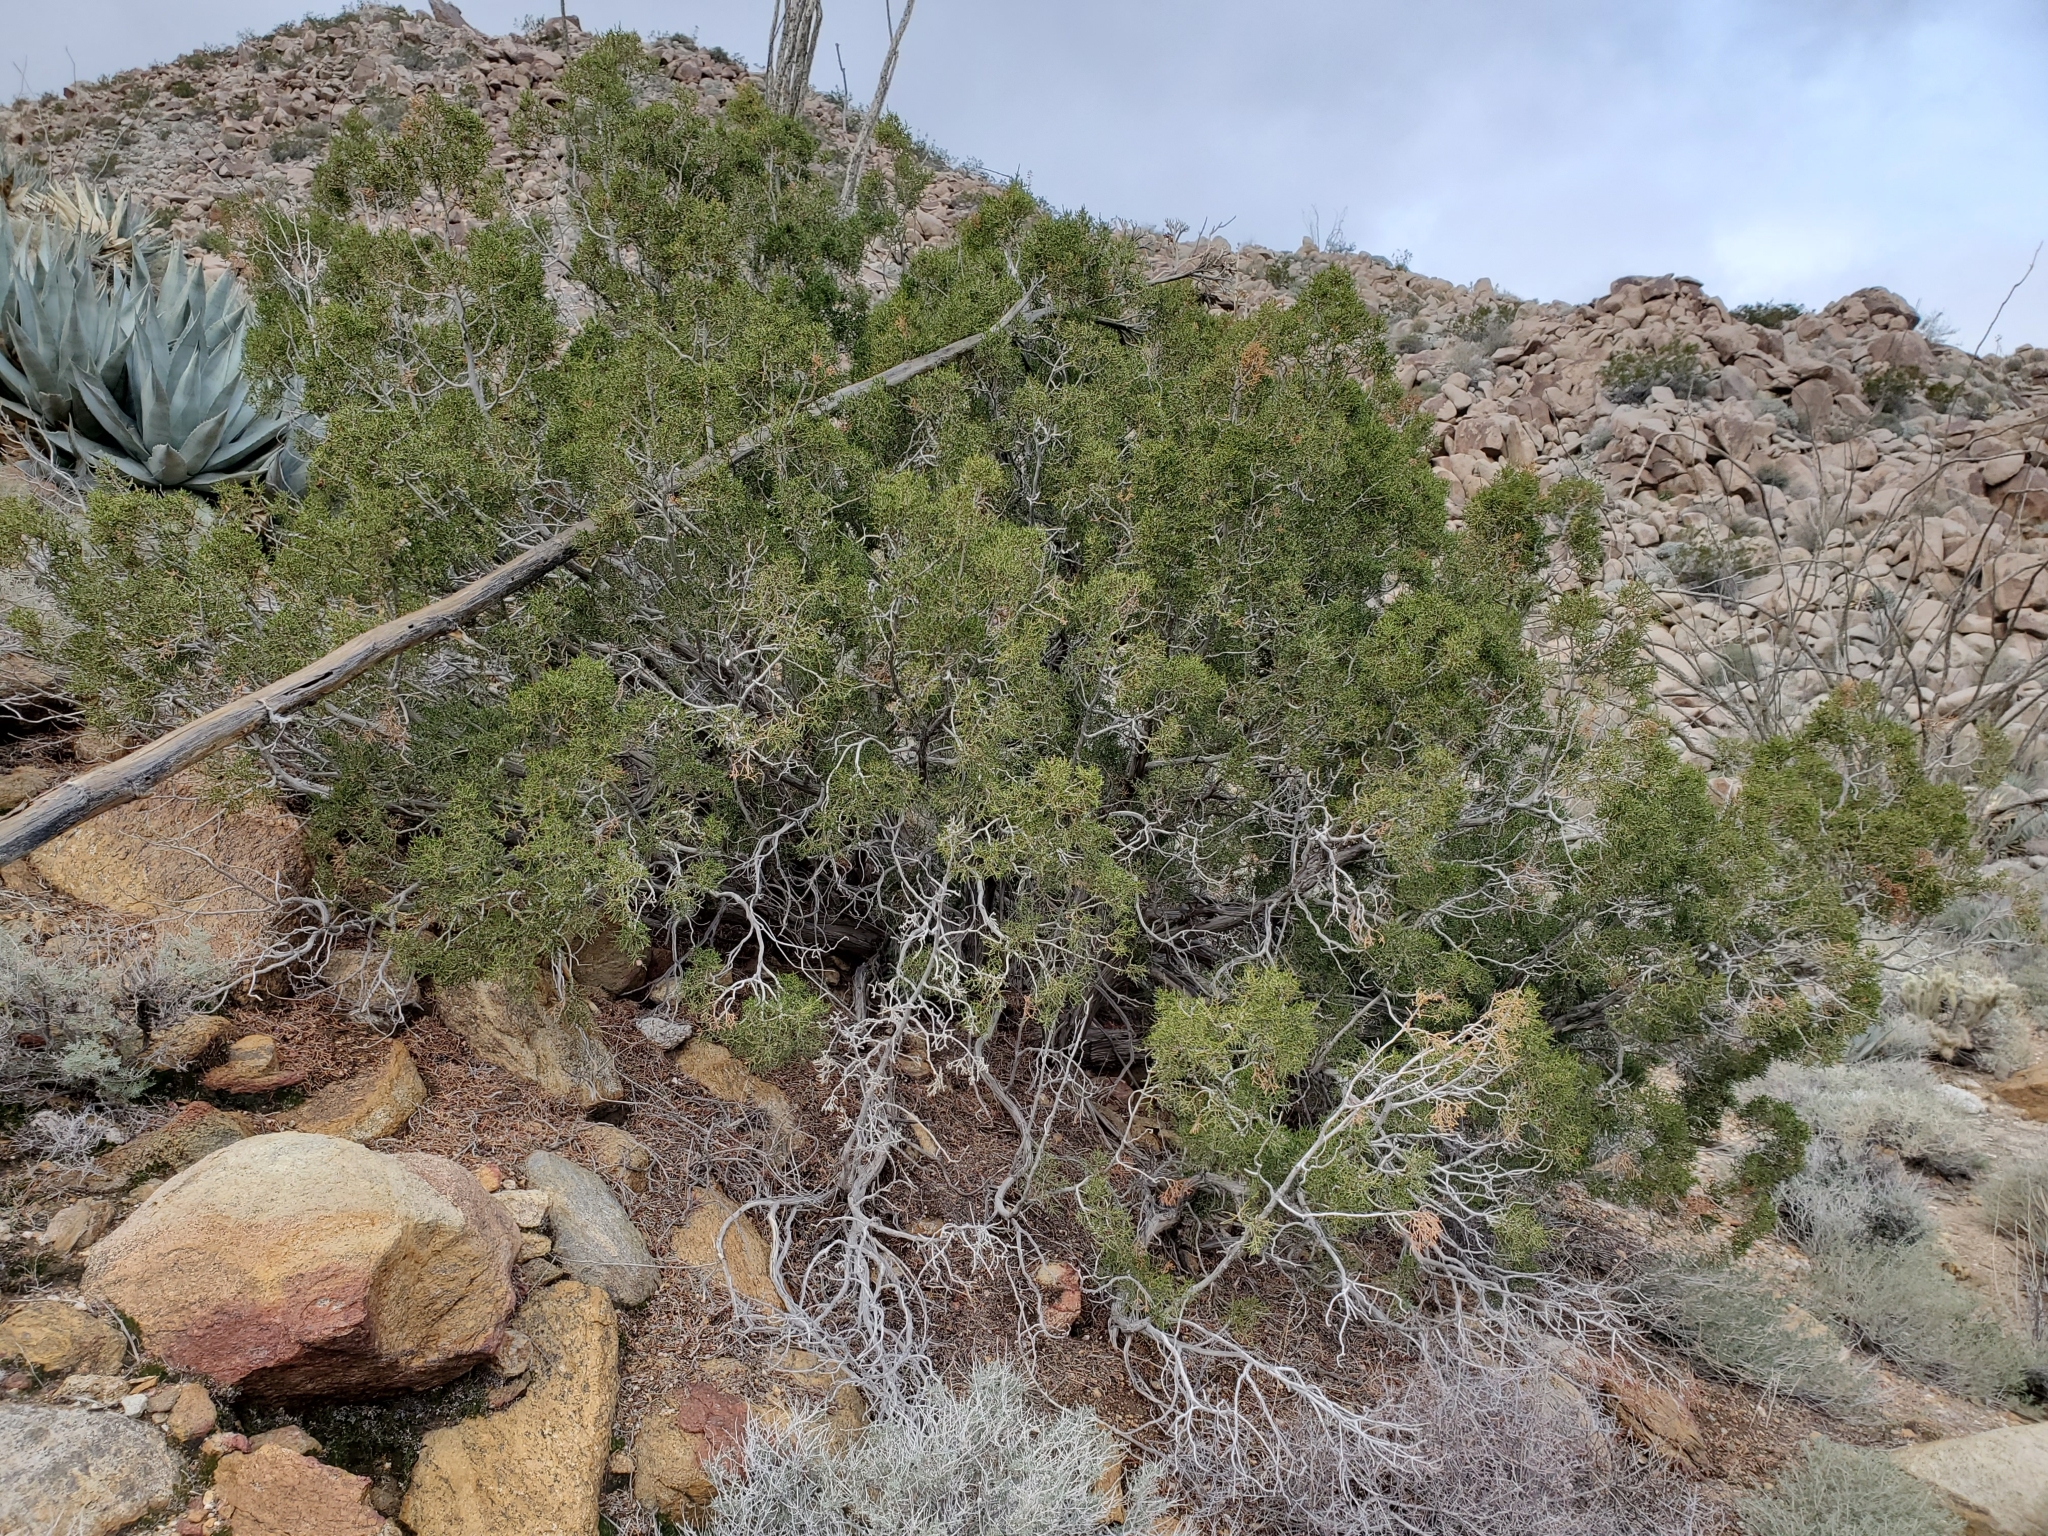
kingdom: Plantae
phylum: Tracheophyta
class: Pinopsida
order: Pinales
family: Cupressaceae
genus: Juniperus
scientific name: Juniperus californica
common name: California juniper
